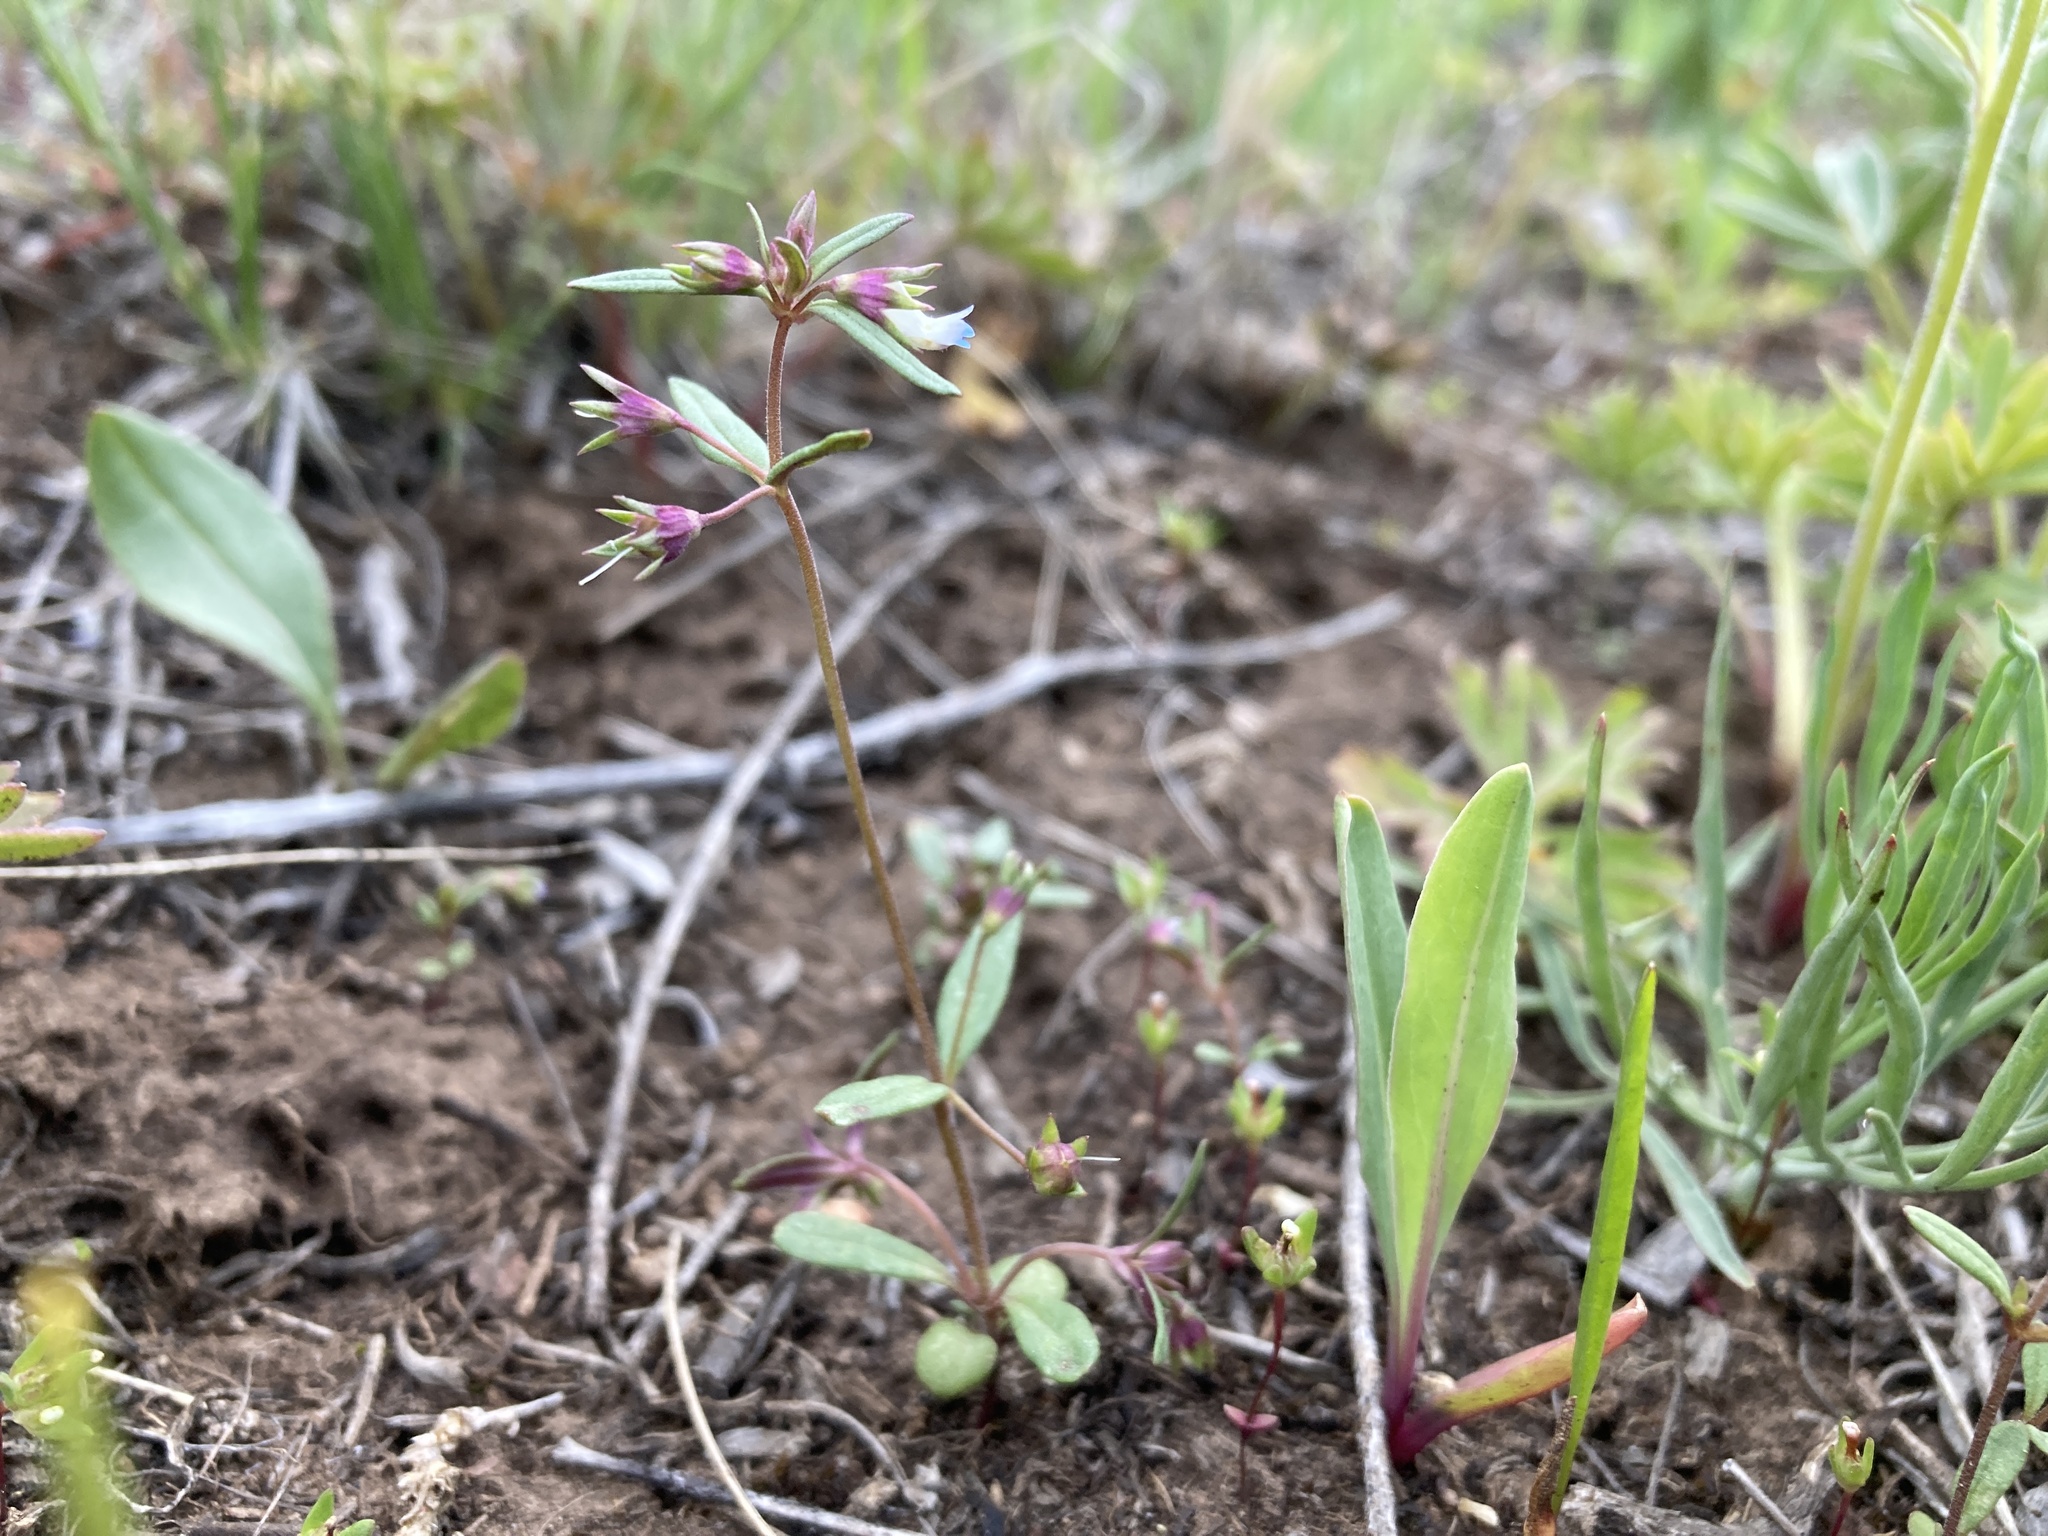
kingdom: Plantae
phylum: Tracheophyta
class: Magnoliopsida
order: Lamiales
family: Plantaginaceae
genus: Collinsia
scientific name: Collinsia parviflora
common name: Blue-lips
